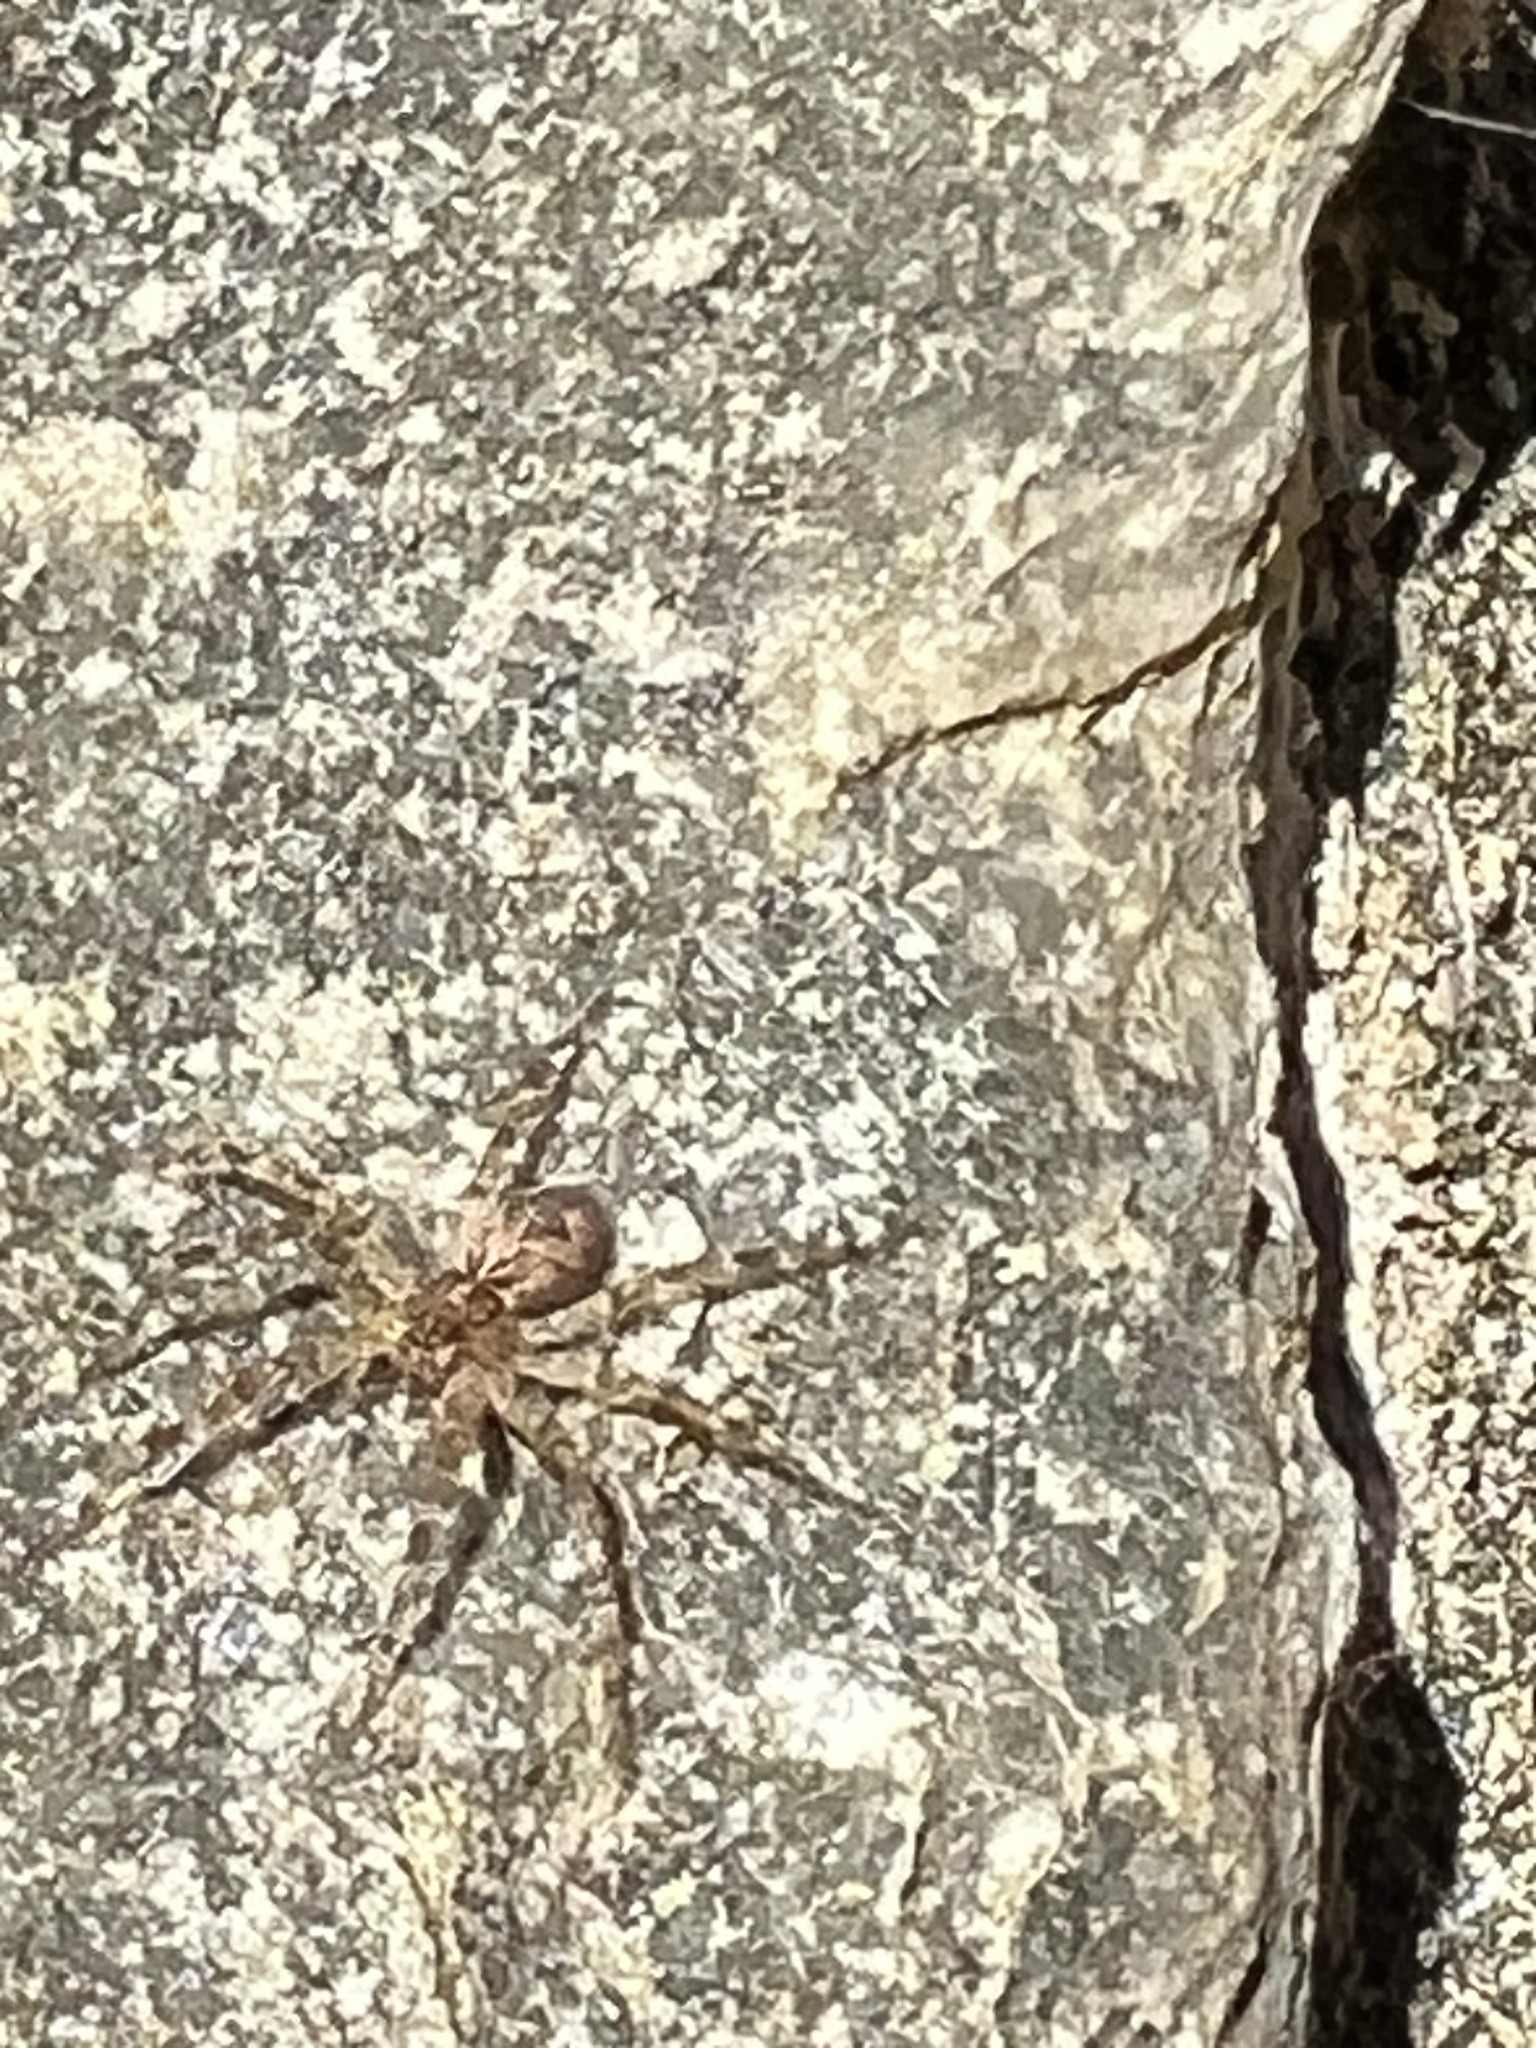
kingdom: Animalia
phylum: Arthropoda
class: Arachnida
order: Araneae
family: Pisauridae
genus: Dolomedes
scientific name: Dolomedes
